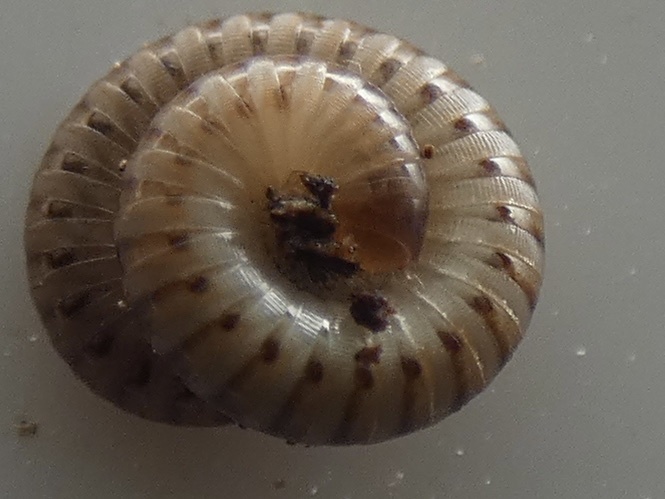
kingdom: Animalia
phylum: Arthropoda
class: Diplopoda
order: Julida
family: Julidae
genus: Cylindroiulus
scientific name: Cylindroiulus punctatus
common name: Blunt-tailed millipede
